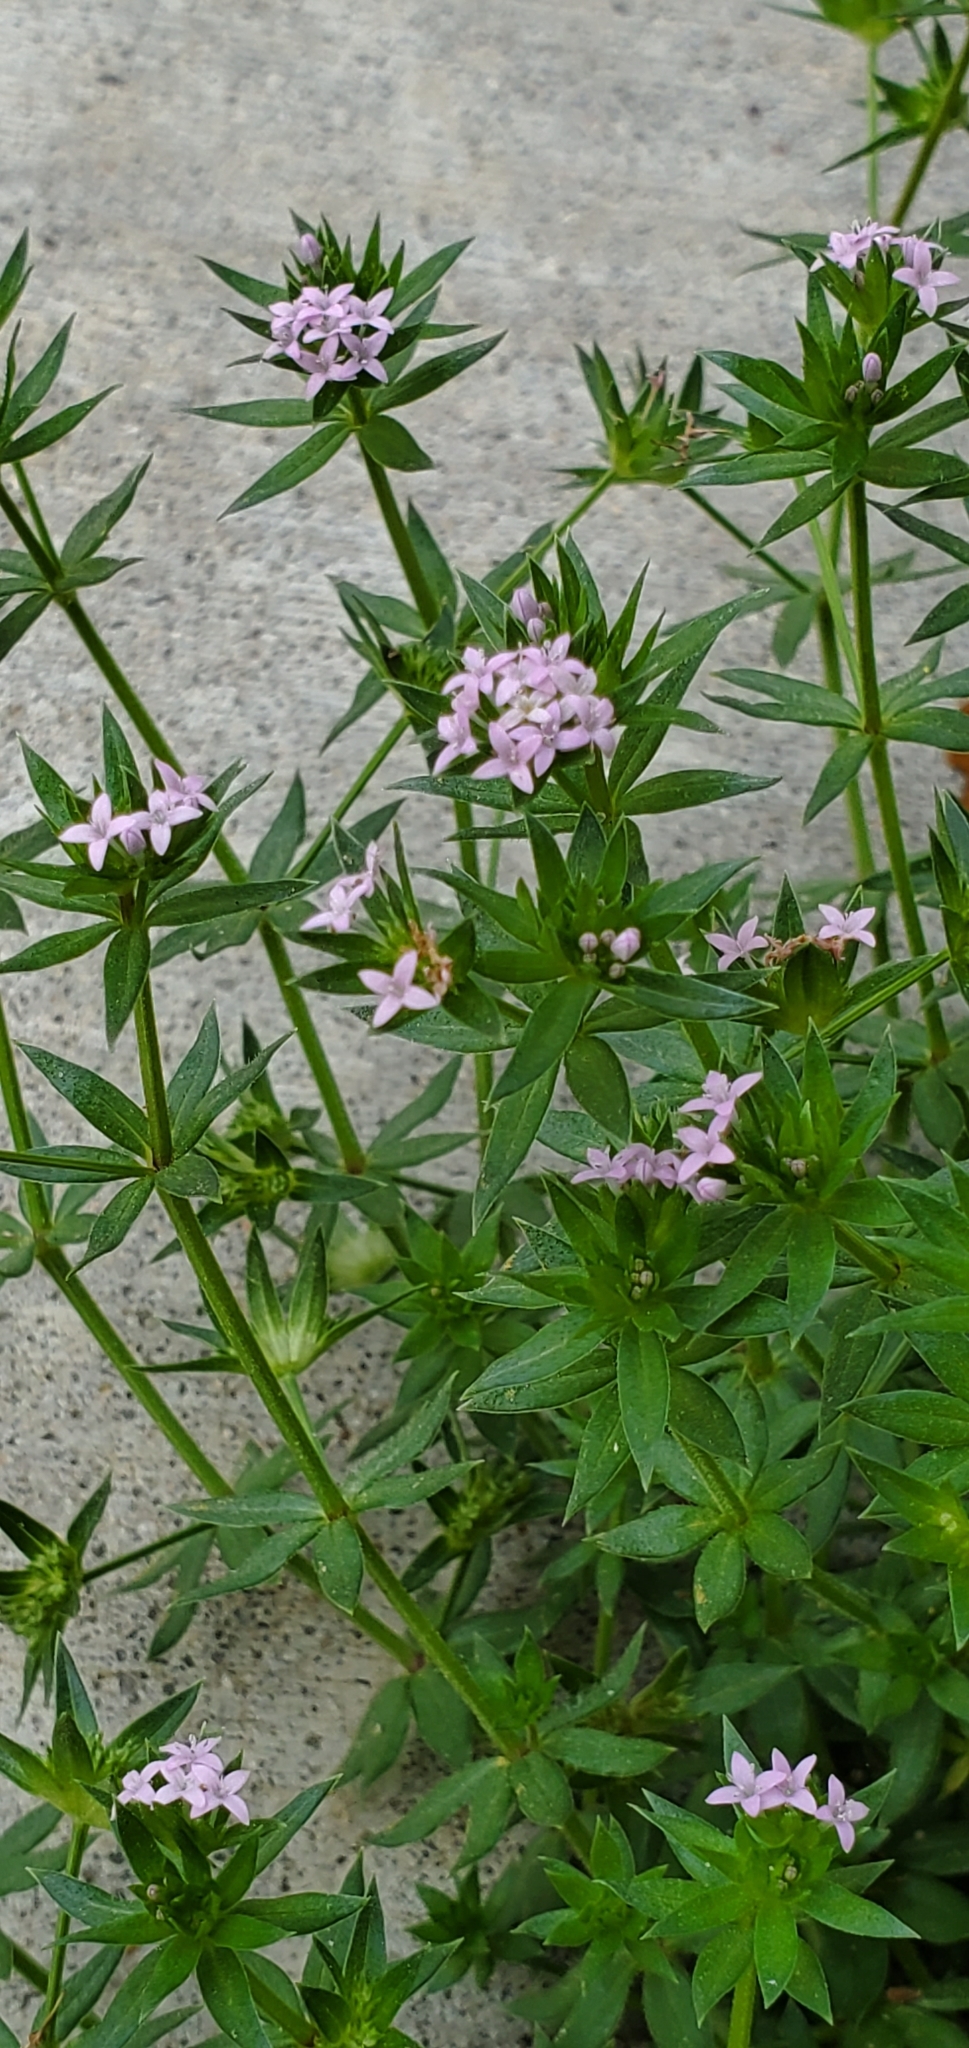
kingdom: Plantae
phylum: Tracheophyta
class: Magnoliopsida
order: Gentianales
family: Rubiaceae
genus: Sherardia
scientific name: Sherardia arvensis
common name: Field madder
